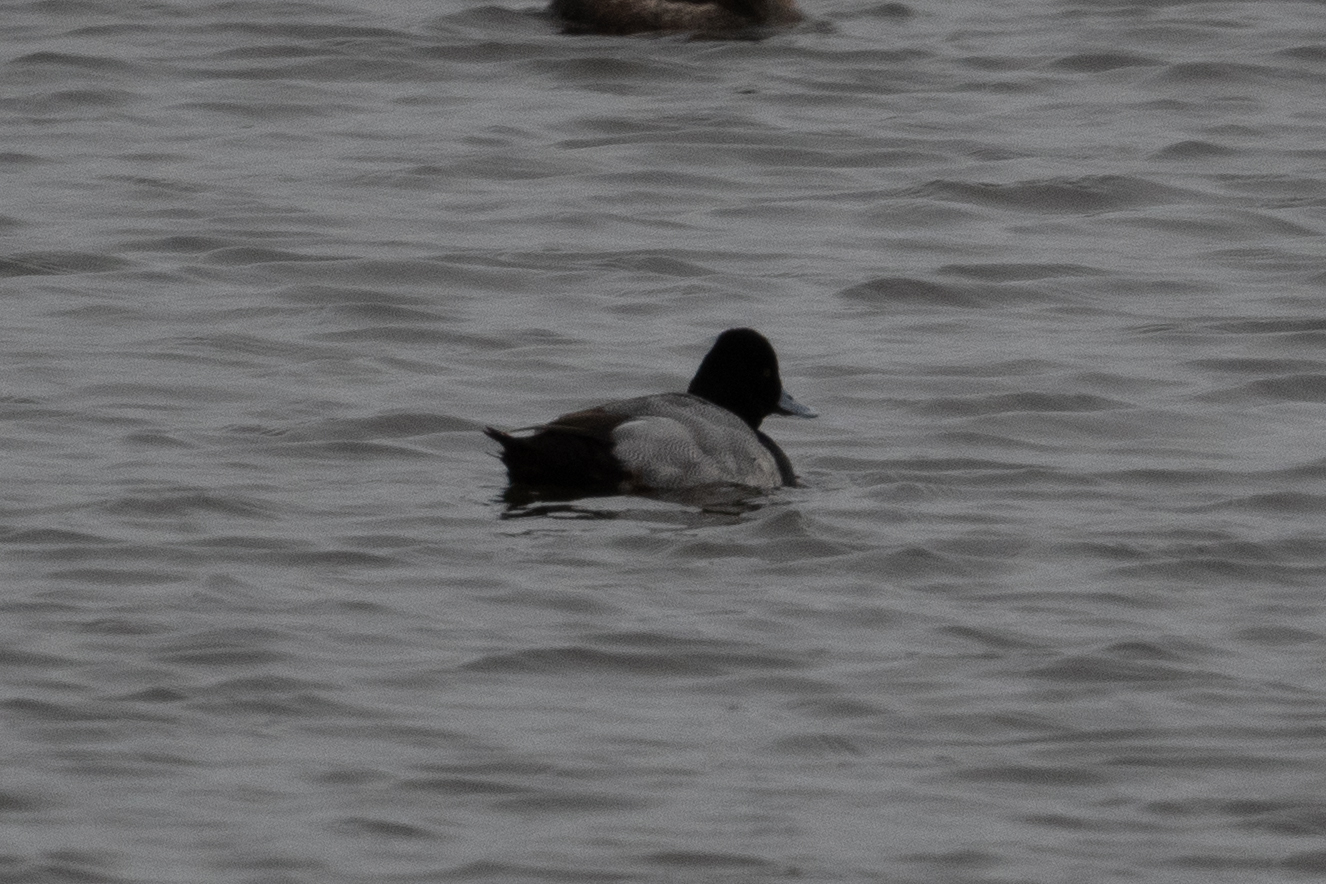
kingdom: Animalia
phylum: Chordata
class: Aves
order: Anseriformes
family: Anatidae
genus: Aythya
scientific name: Aythya affinis
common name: Lesser scaup
